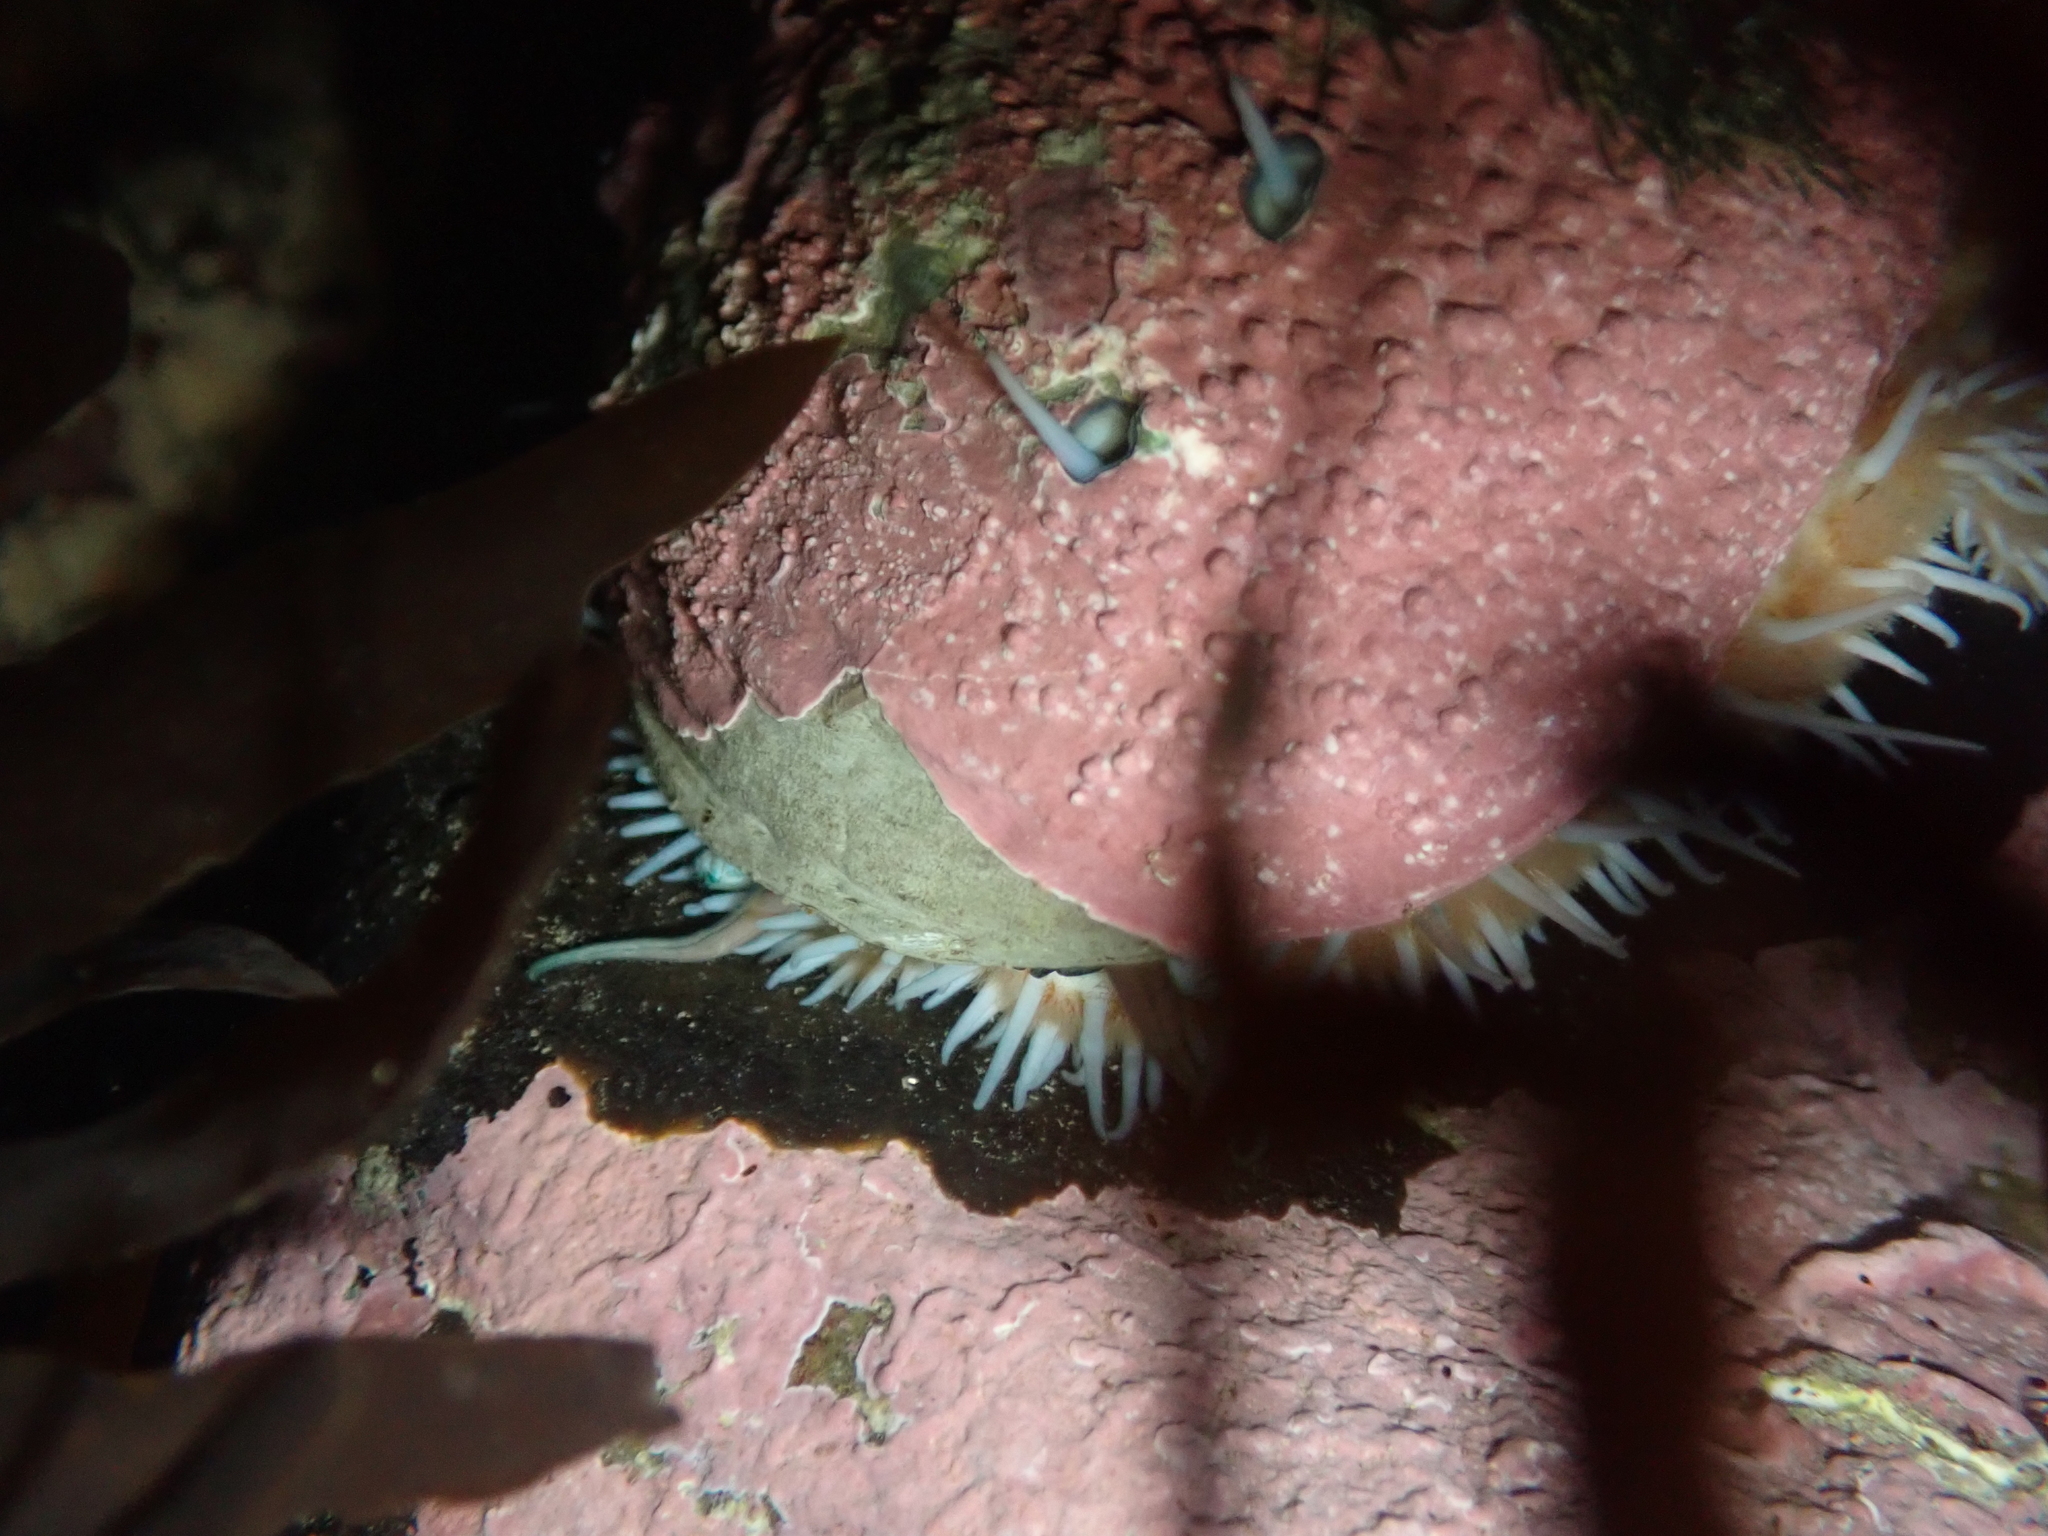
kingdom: Animalia
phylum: Mollusca
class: Gastropoda
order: Lepetellida
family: Haliotidae
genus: Haliotis
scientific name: Haliotis australis
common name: Silver abalone
